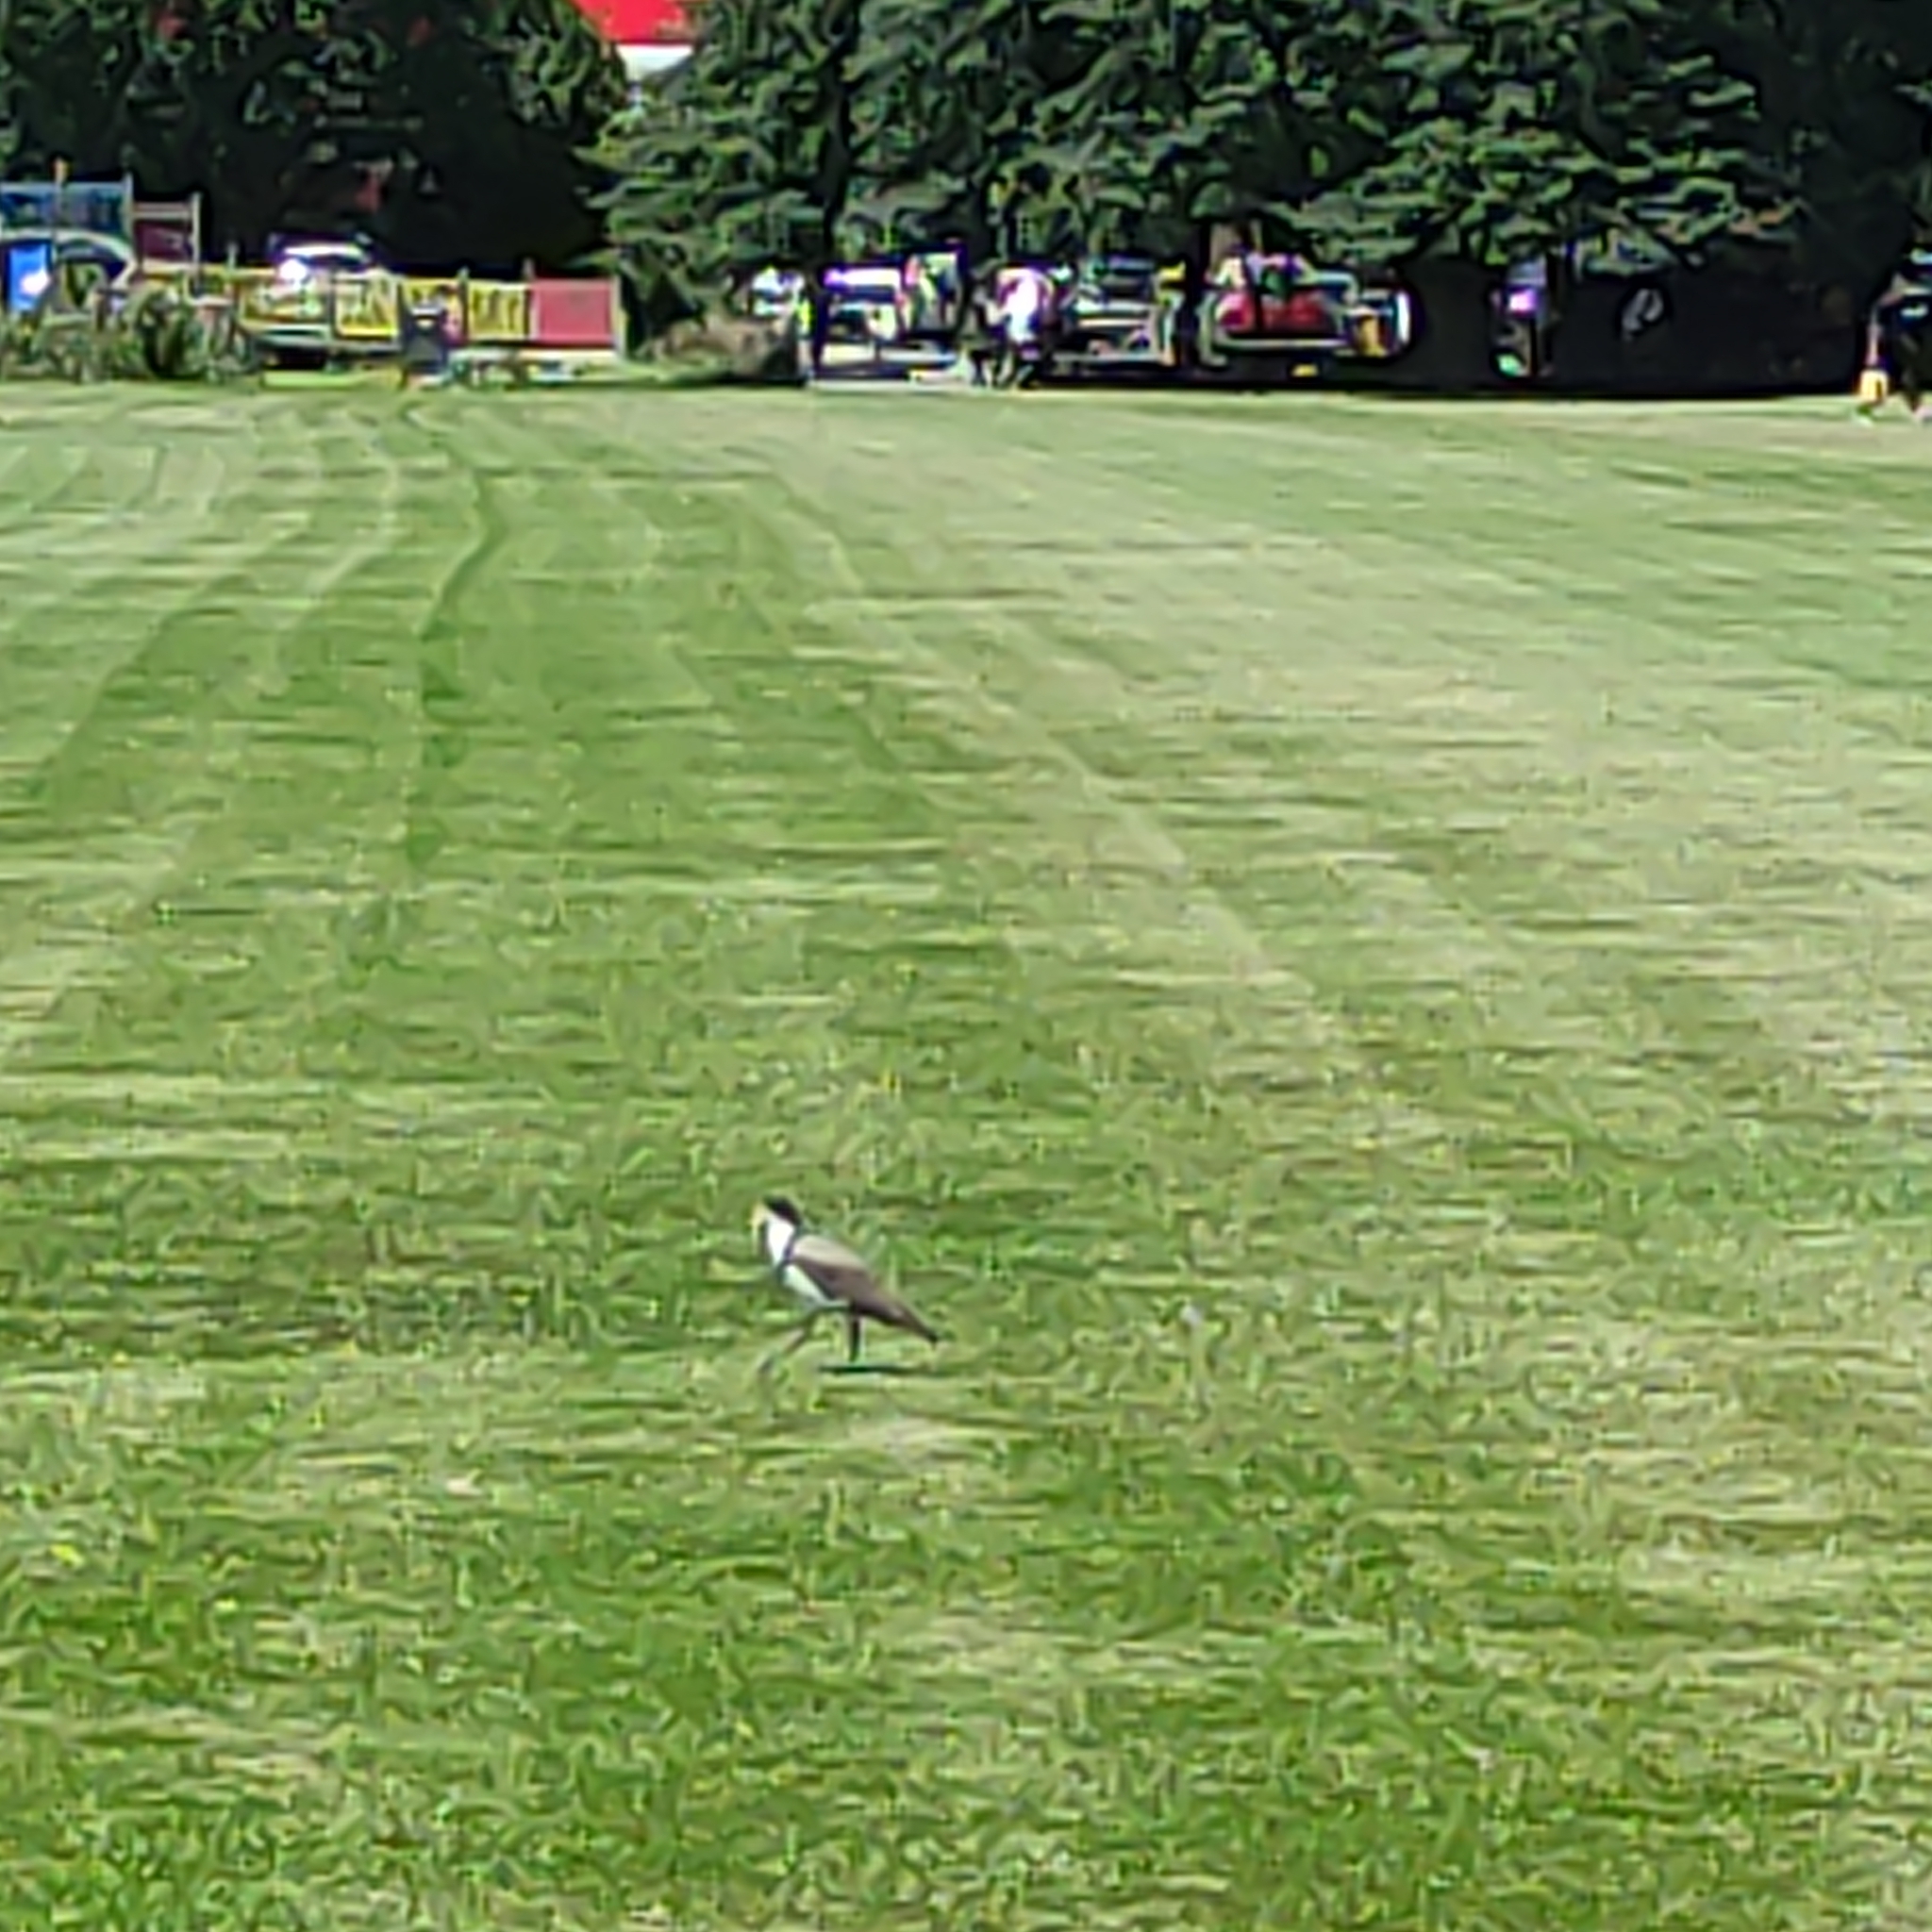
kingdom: Animalia
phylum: Chordata
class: Aves
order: Charadriiformes
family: Charadriidae
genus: Vanellus
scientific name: Vanellus miles
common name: Masked lapwing
